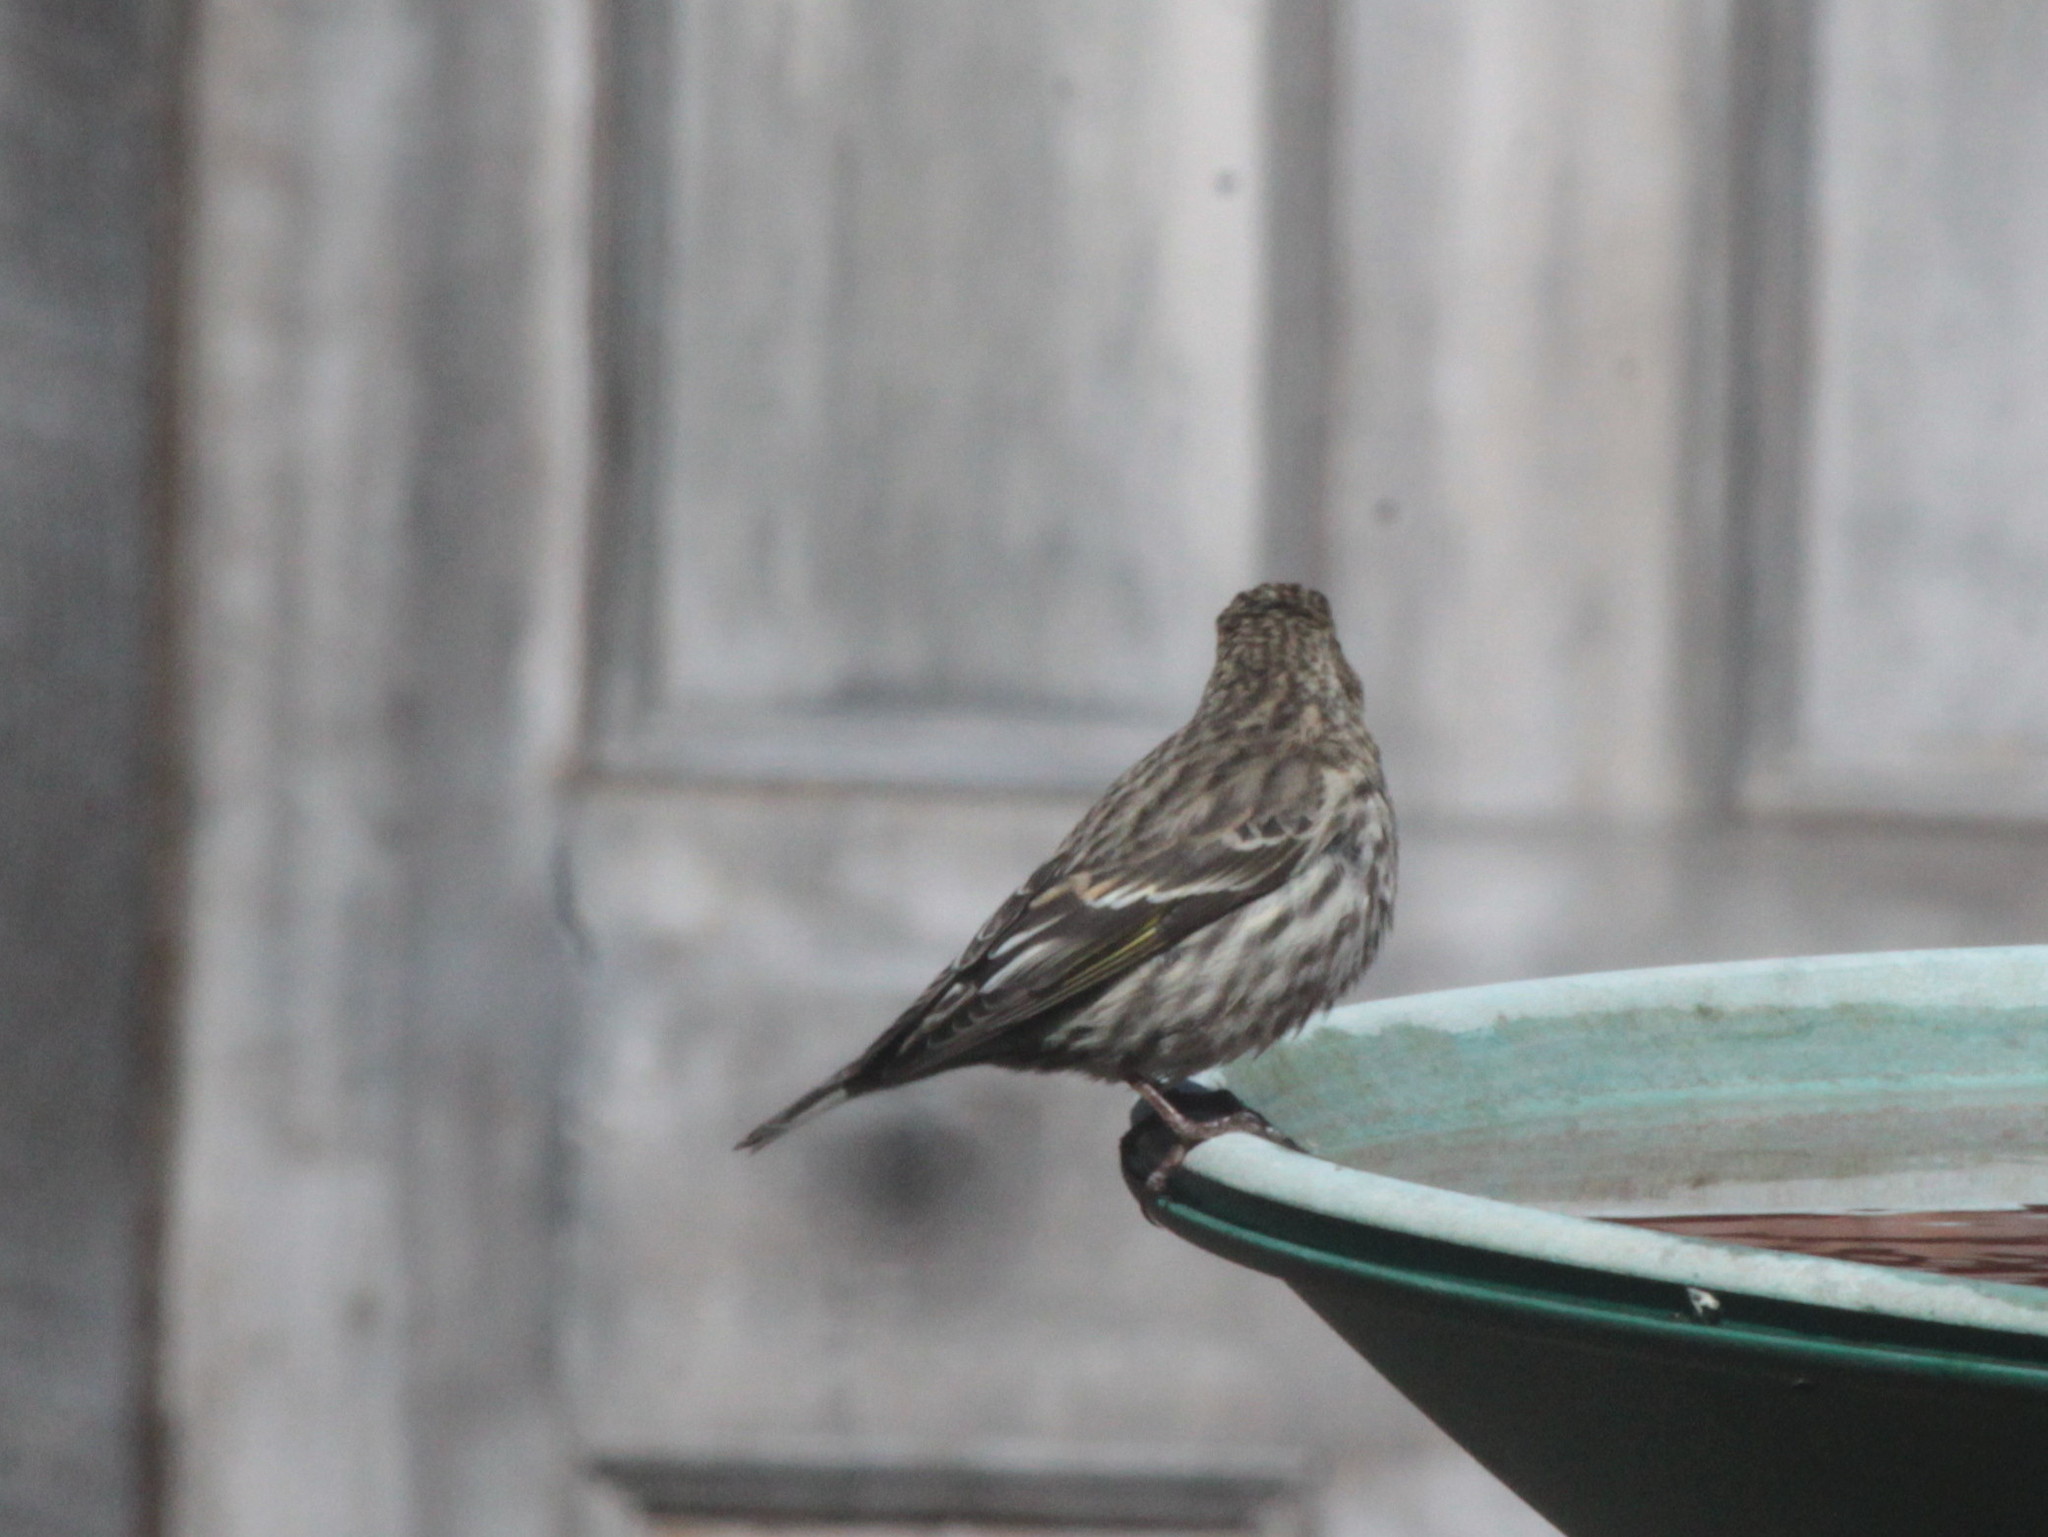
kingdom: Animalia
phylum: Chordata
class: Aves
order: Passeriformes
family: Fringillidae
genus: Spinus
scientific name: Spinus pinus
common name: Pine siskin
